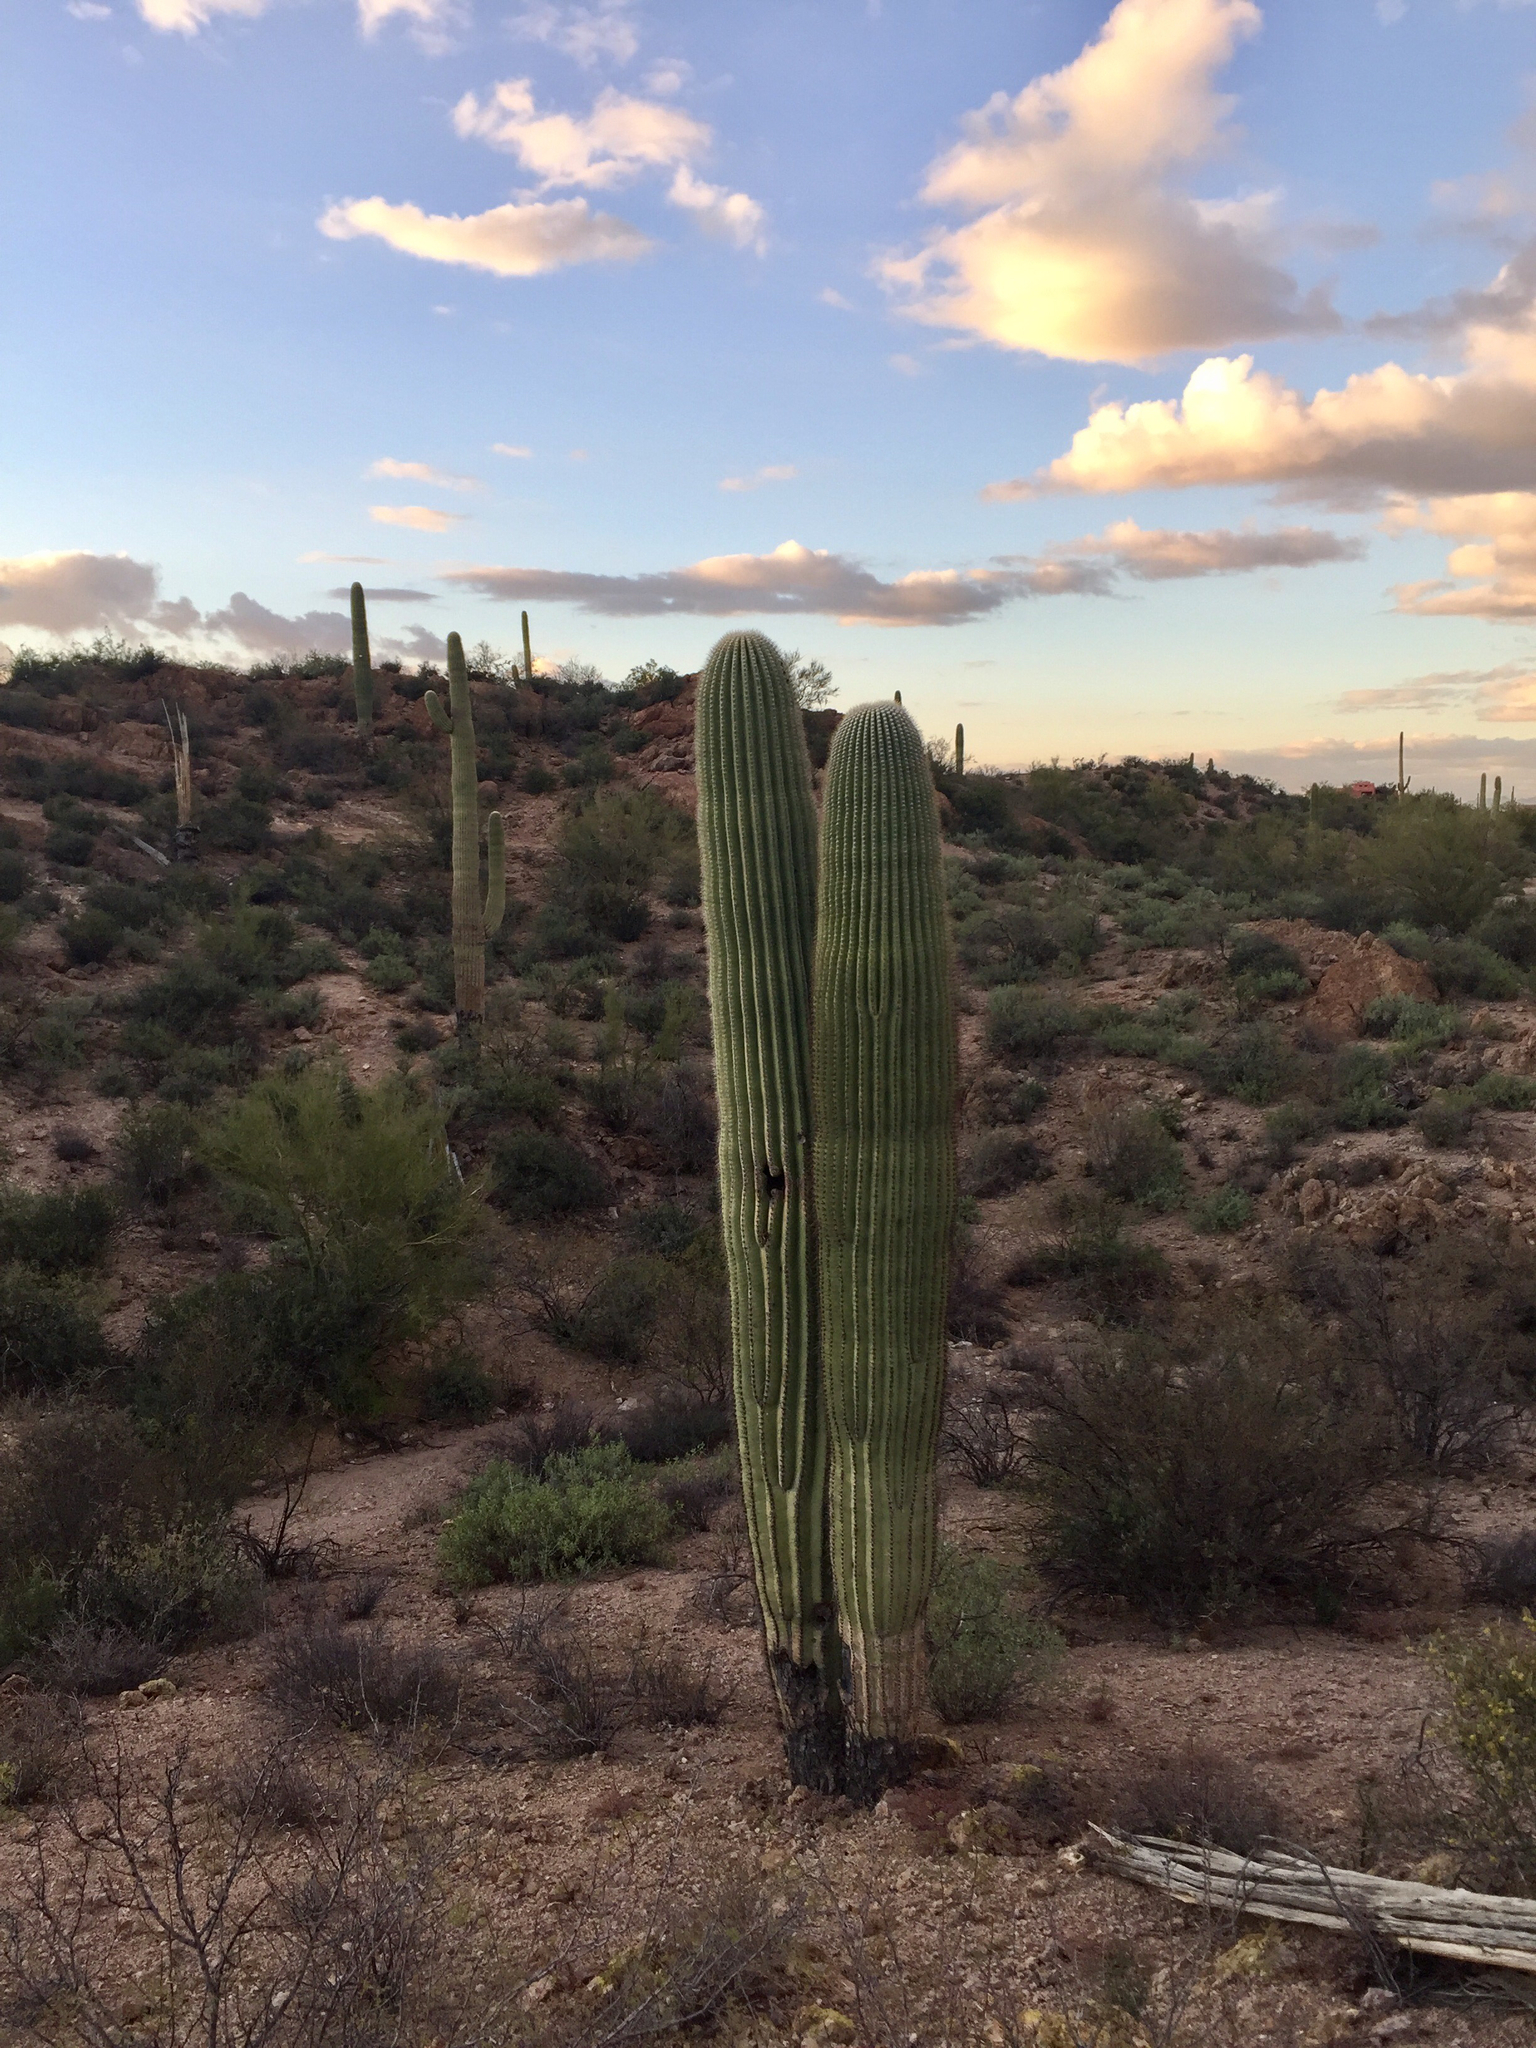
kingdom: Plantae
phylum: Tracheophyta
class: Magnoliopsida
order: Caryophyllales
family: Cactaceae
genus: Carnegiea
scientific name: Carnegiea gigantea
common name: Saguaro
